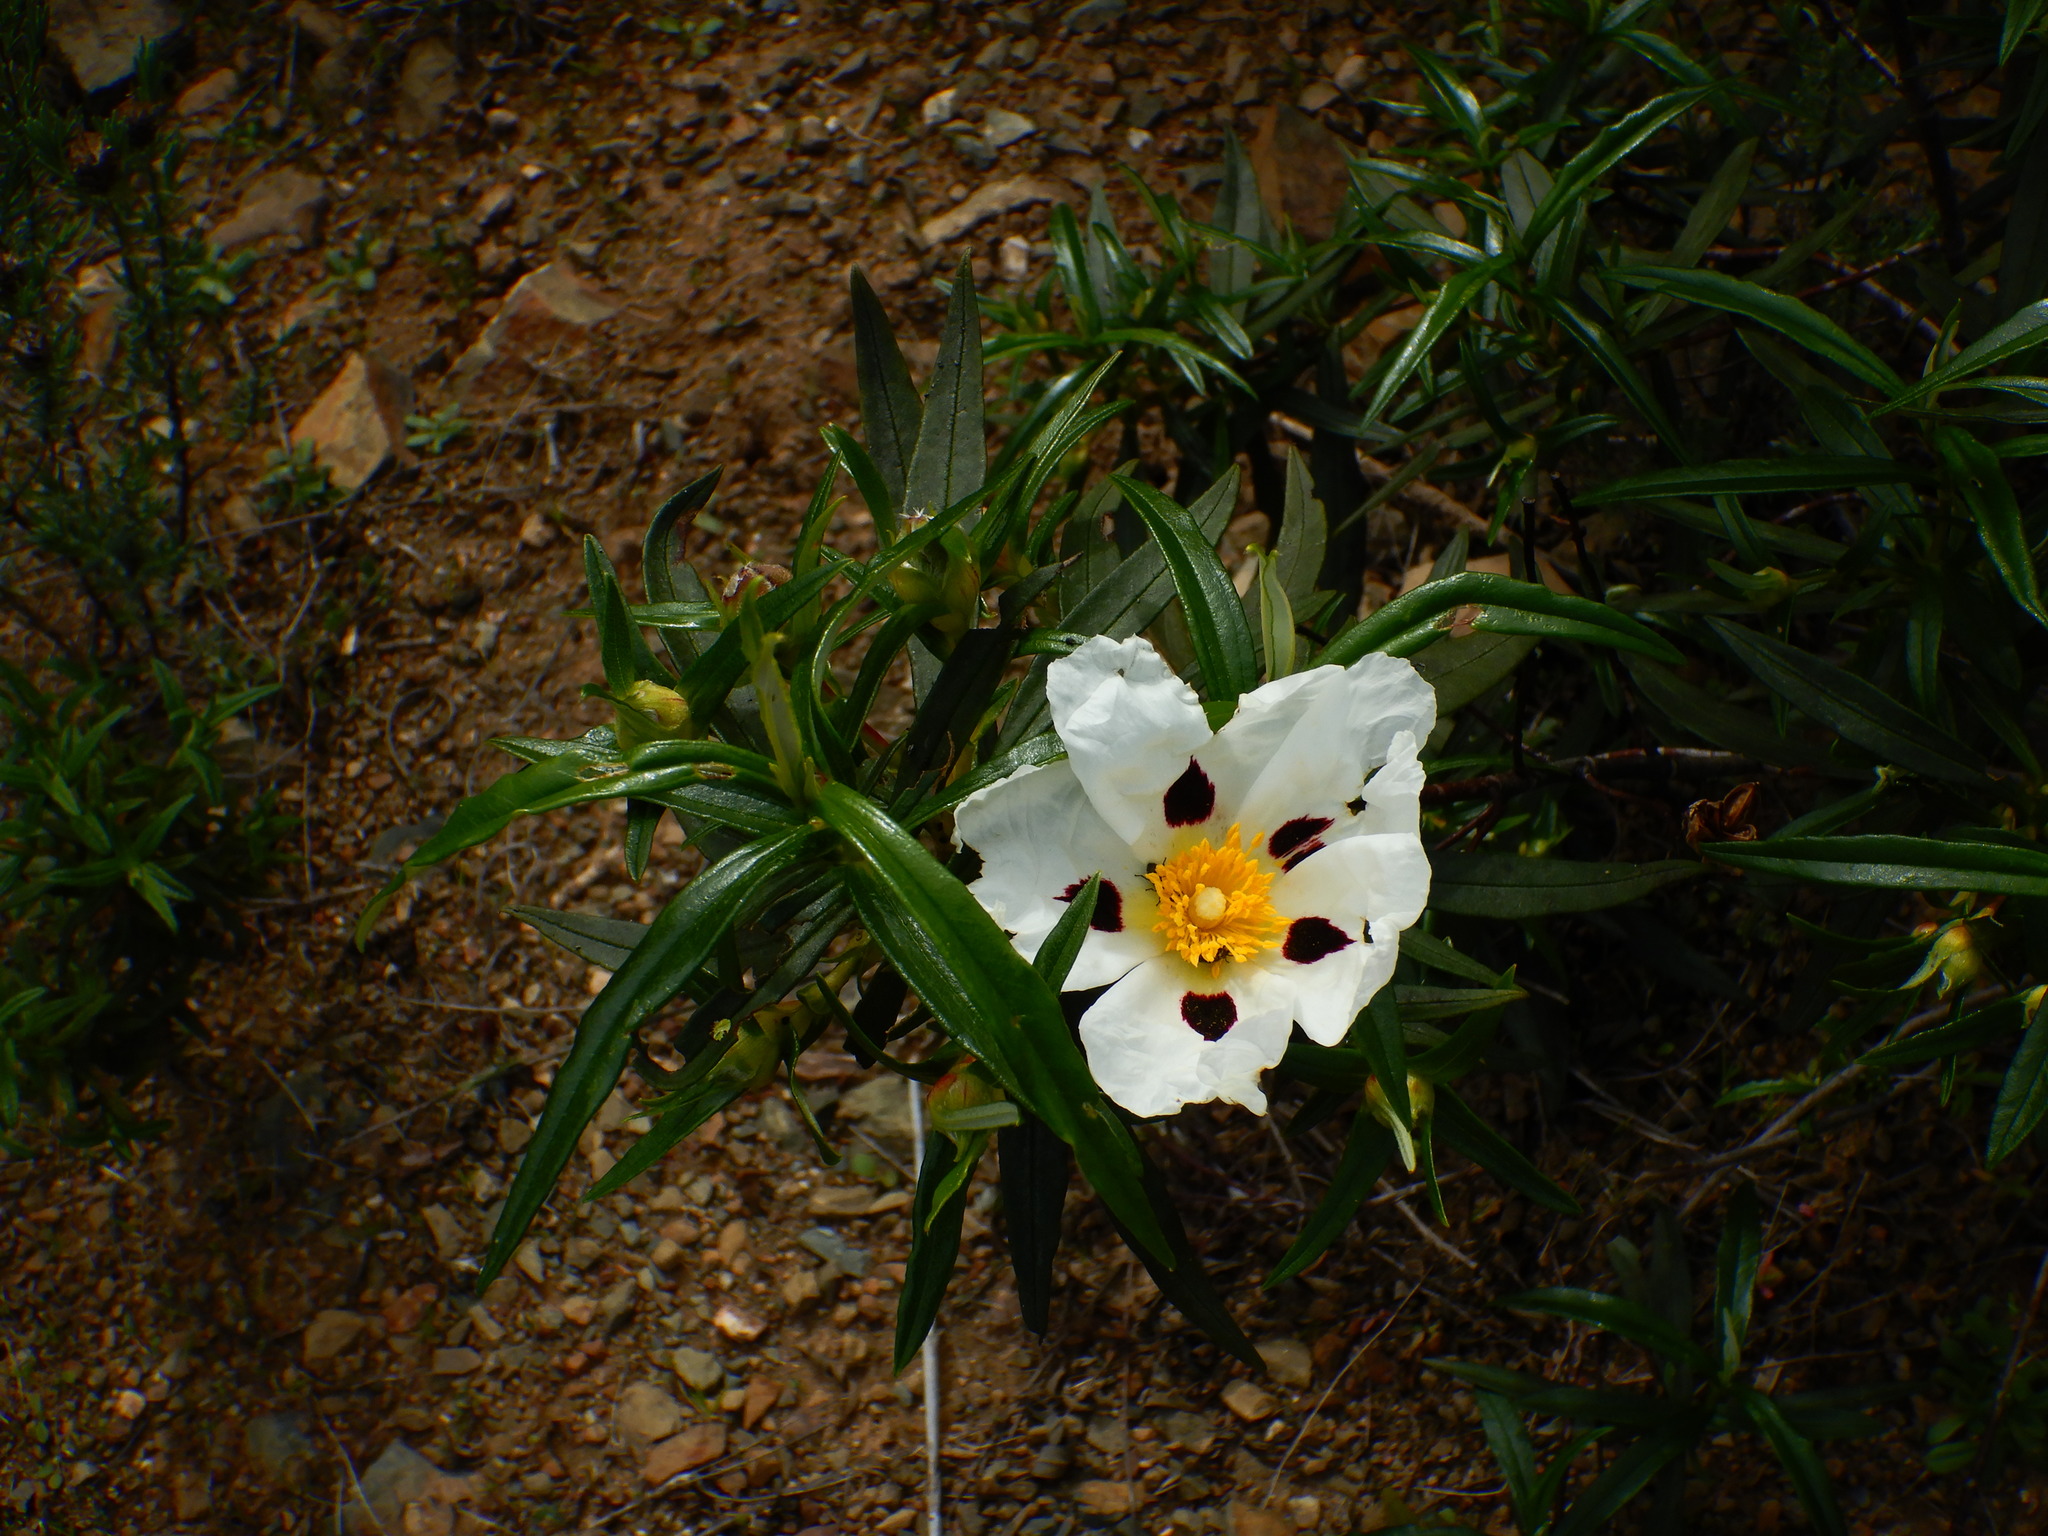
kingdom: Plantae
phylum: Tracheophyta
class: Magnoliopsida
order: Malvales
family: Cistaceae
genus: Cistus
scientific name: Cistus ladanifer
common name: Common gum cistus
